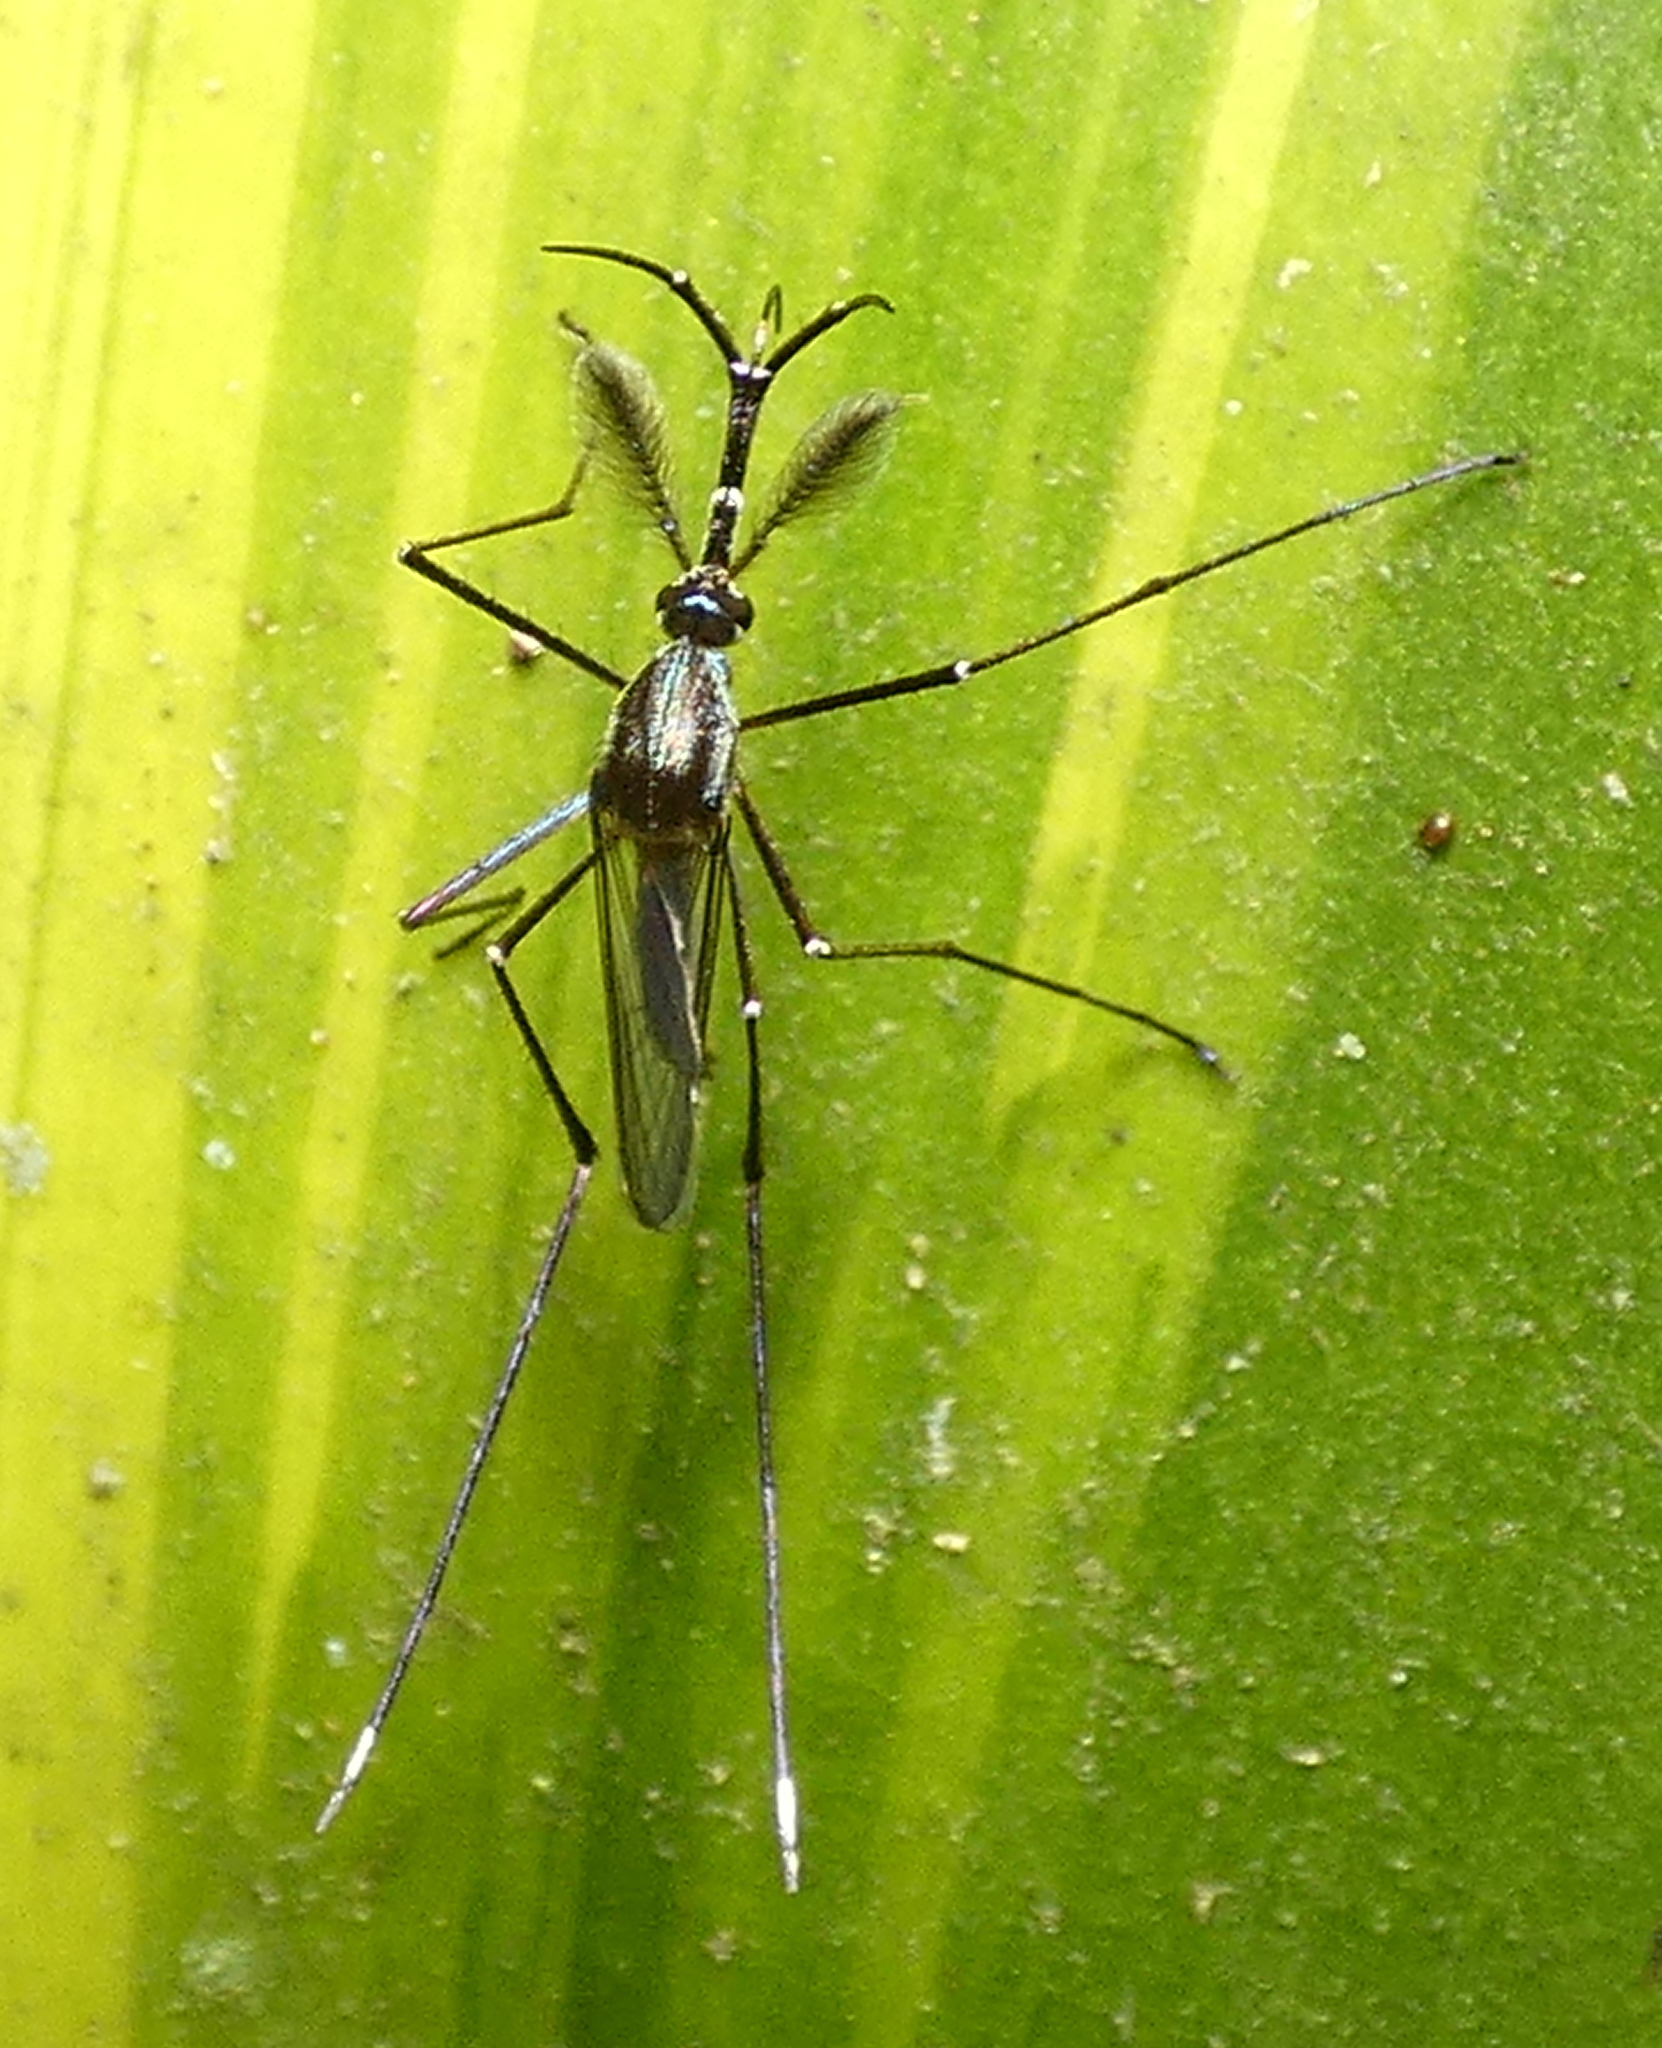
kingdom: Animalia
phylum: Arthropoda
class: Insecta
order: Diptera
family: Culicidae
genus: Toxorhynchites
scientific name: Toxorhynchites theobaldi
